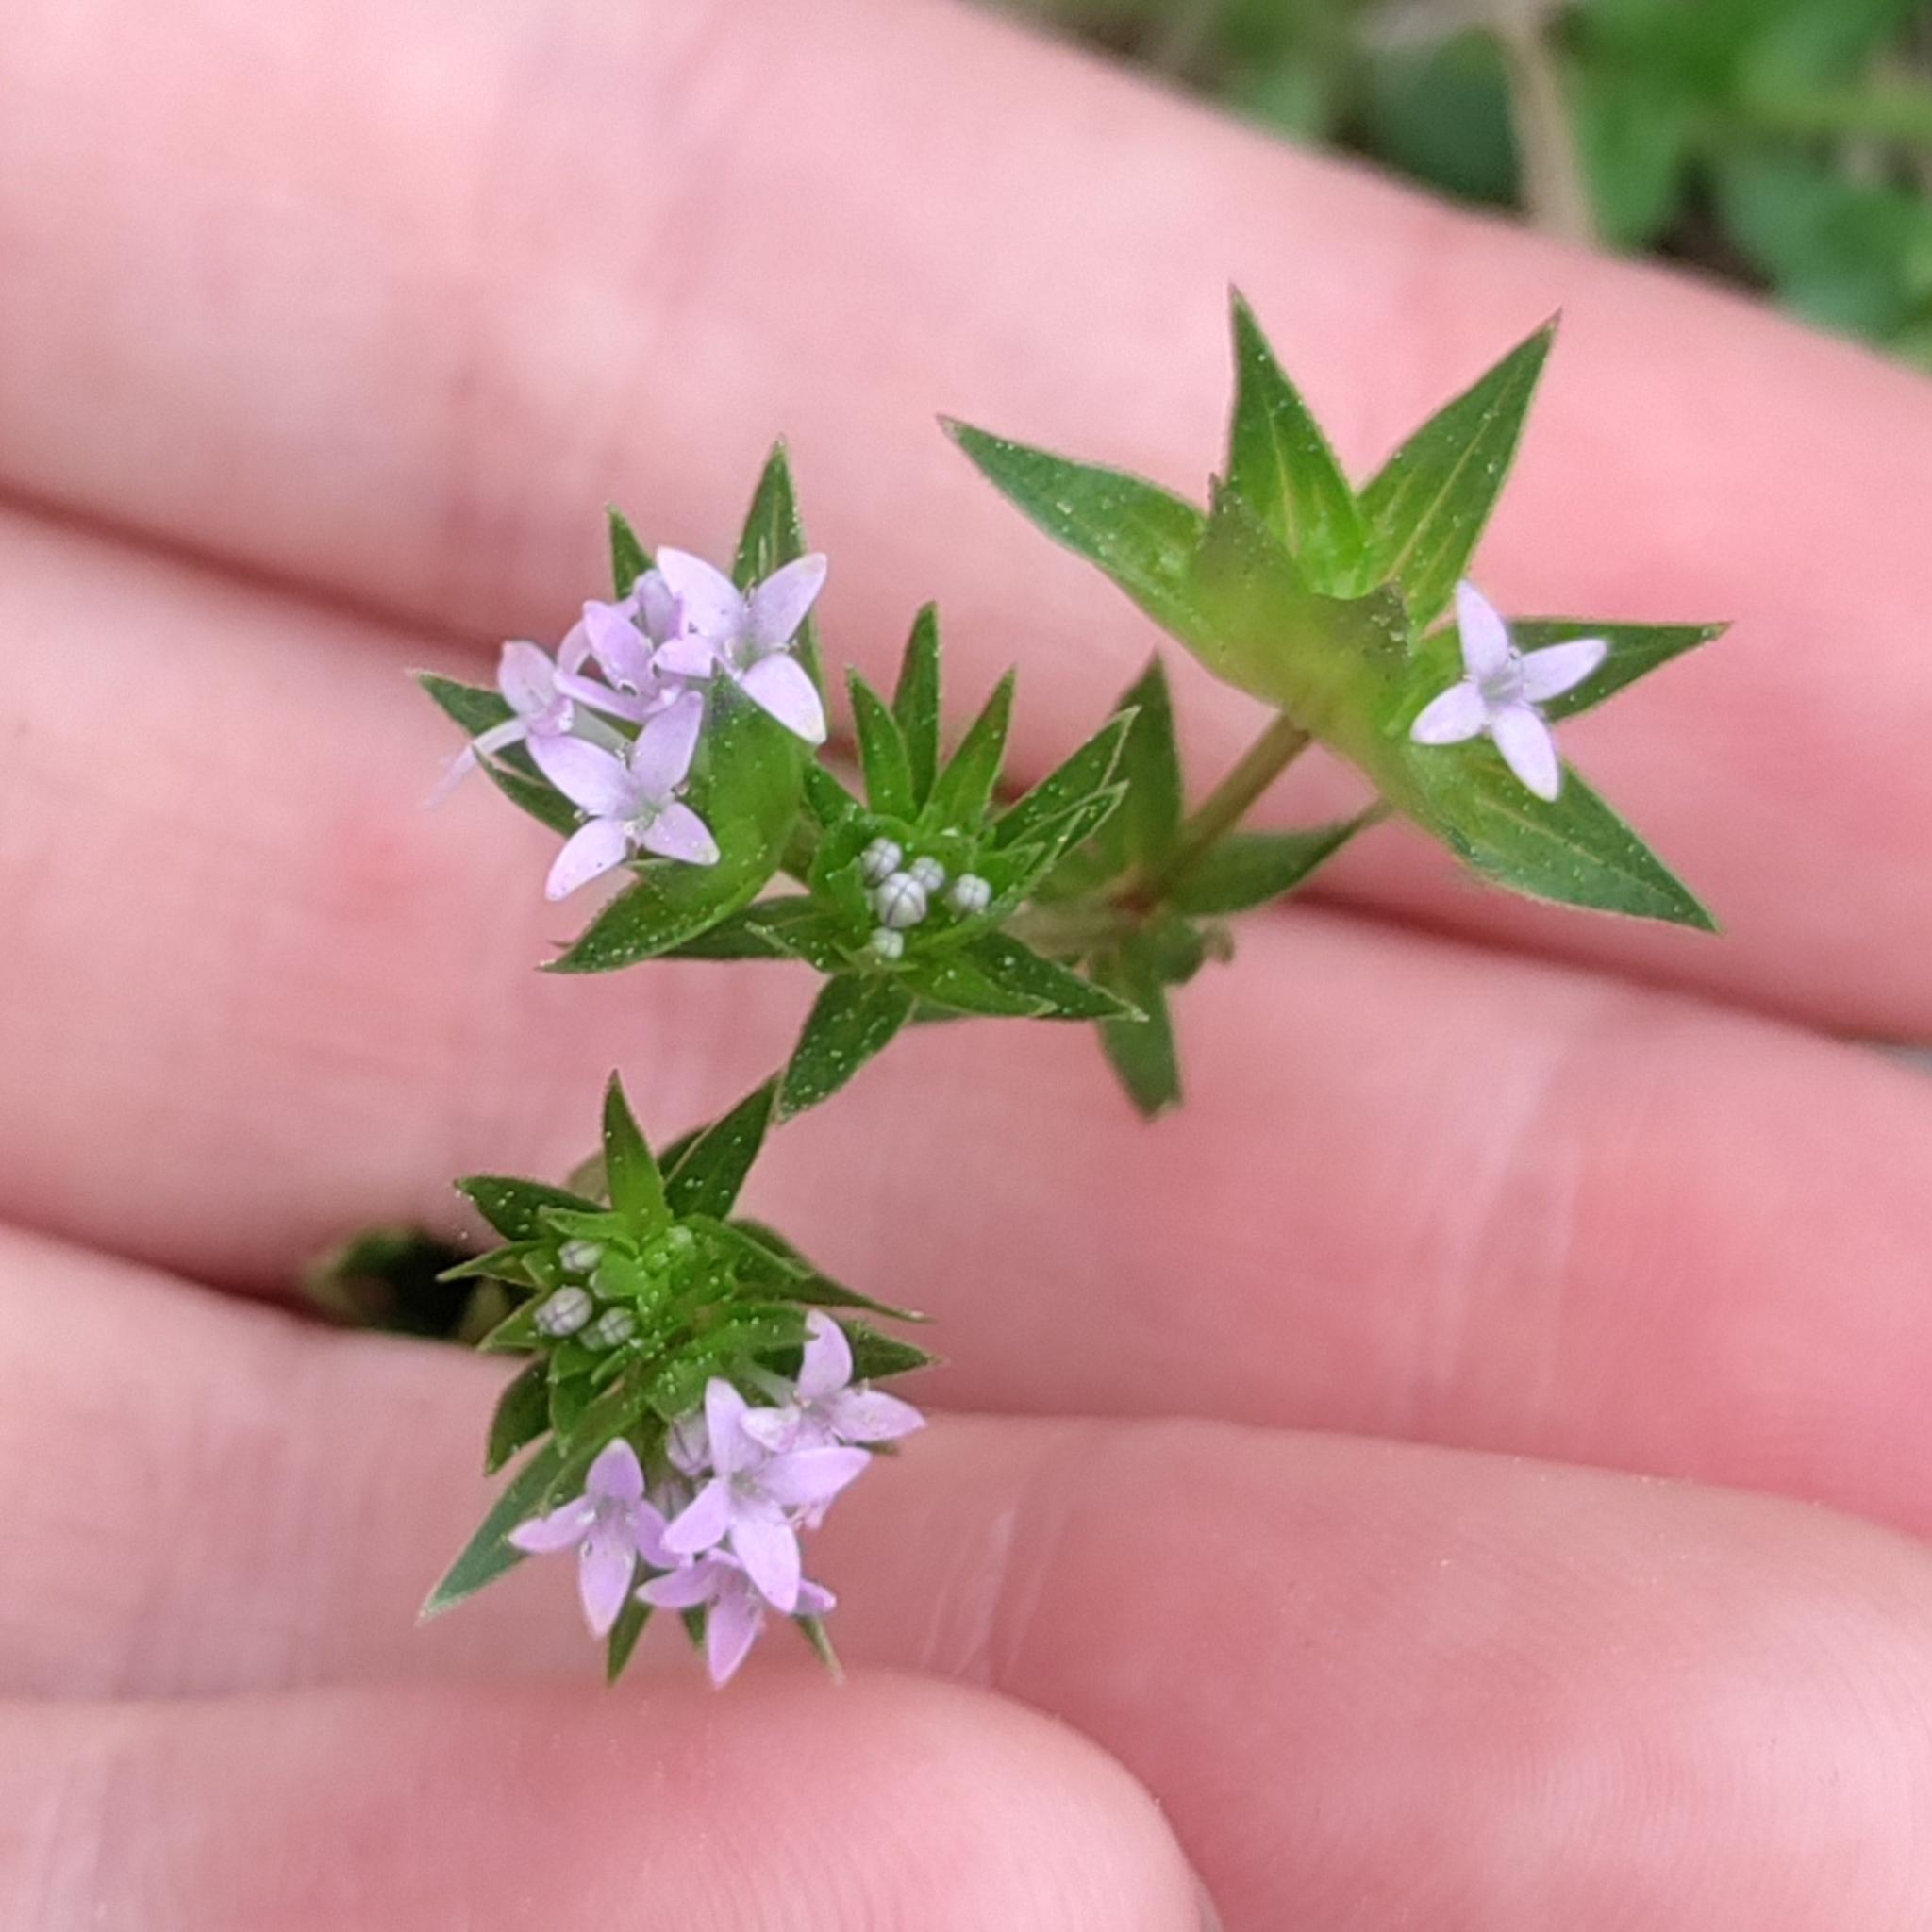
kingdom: Plantae
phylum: Tracheophyta
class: Magnoliopsida
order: Gentianales
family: Rubiaceae
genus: Sherardia
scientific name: Sherardia arvensis
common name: Field madder
